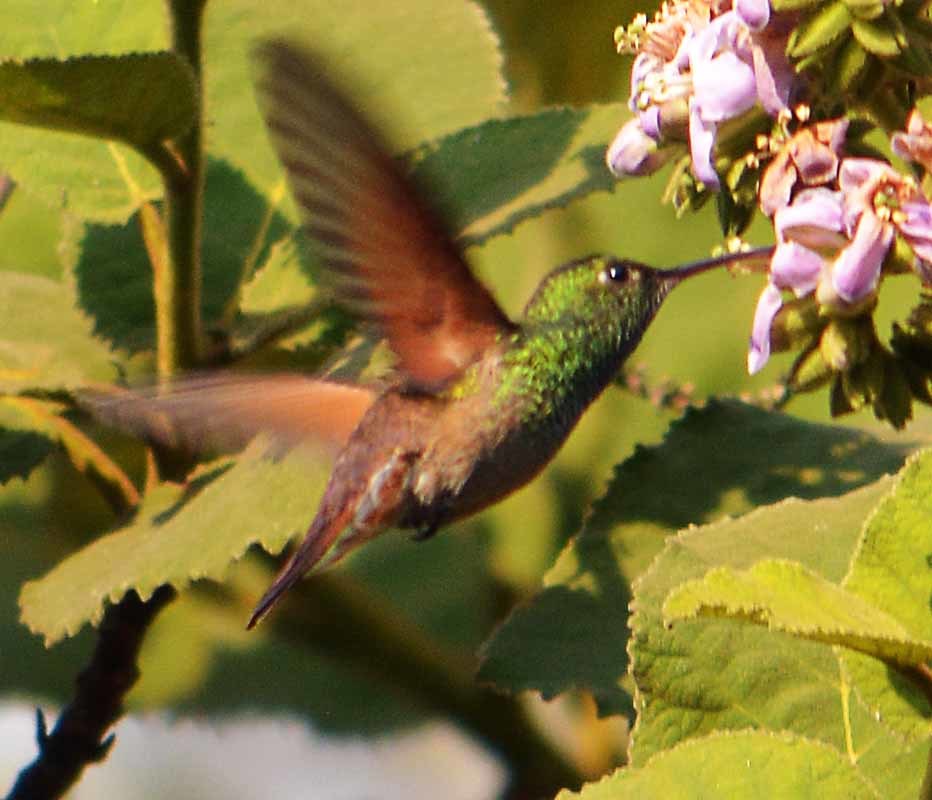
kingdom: Animalia
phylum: Chordata
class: Aves
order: Apodiformes
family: Trochilidae
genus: Saucerottia
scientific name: Saucerottia beryllina
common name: Berylline hummingbird
